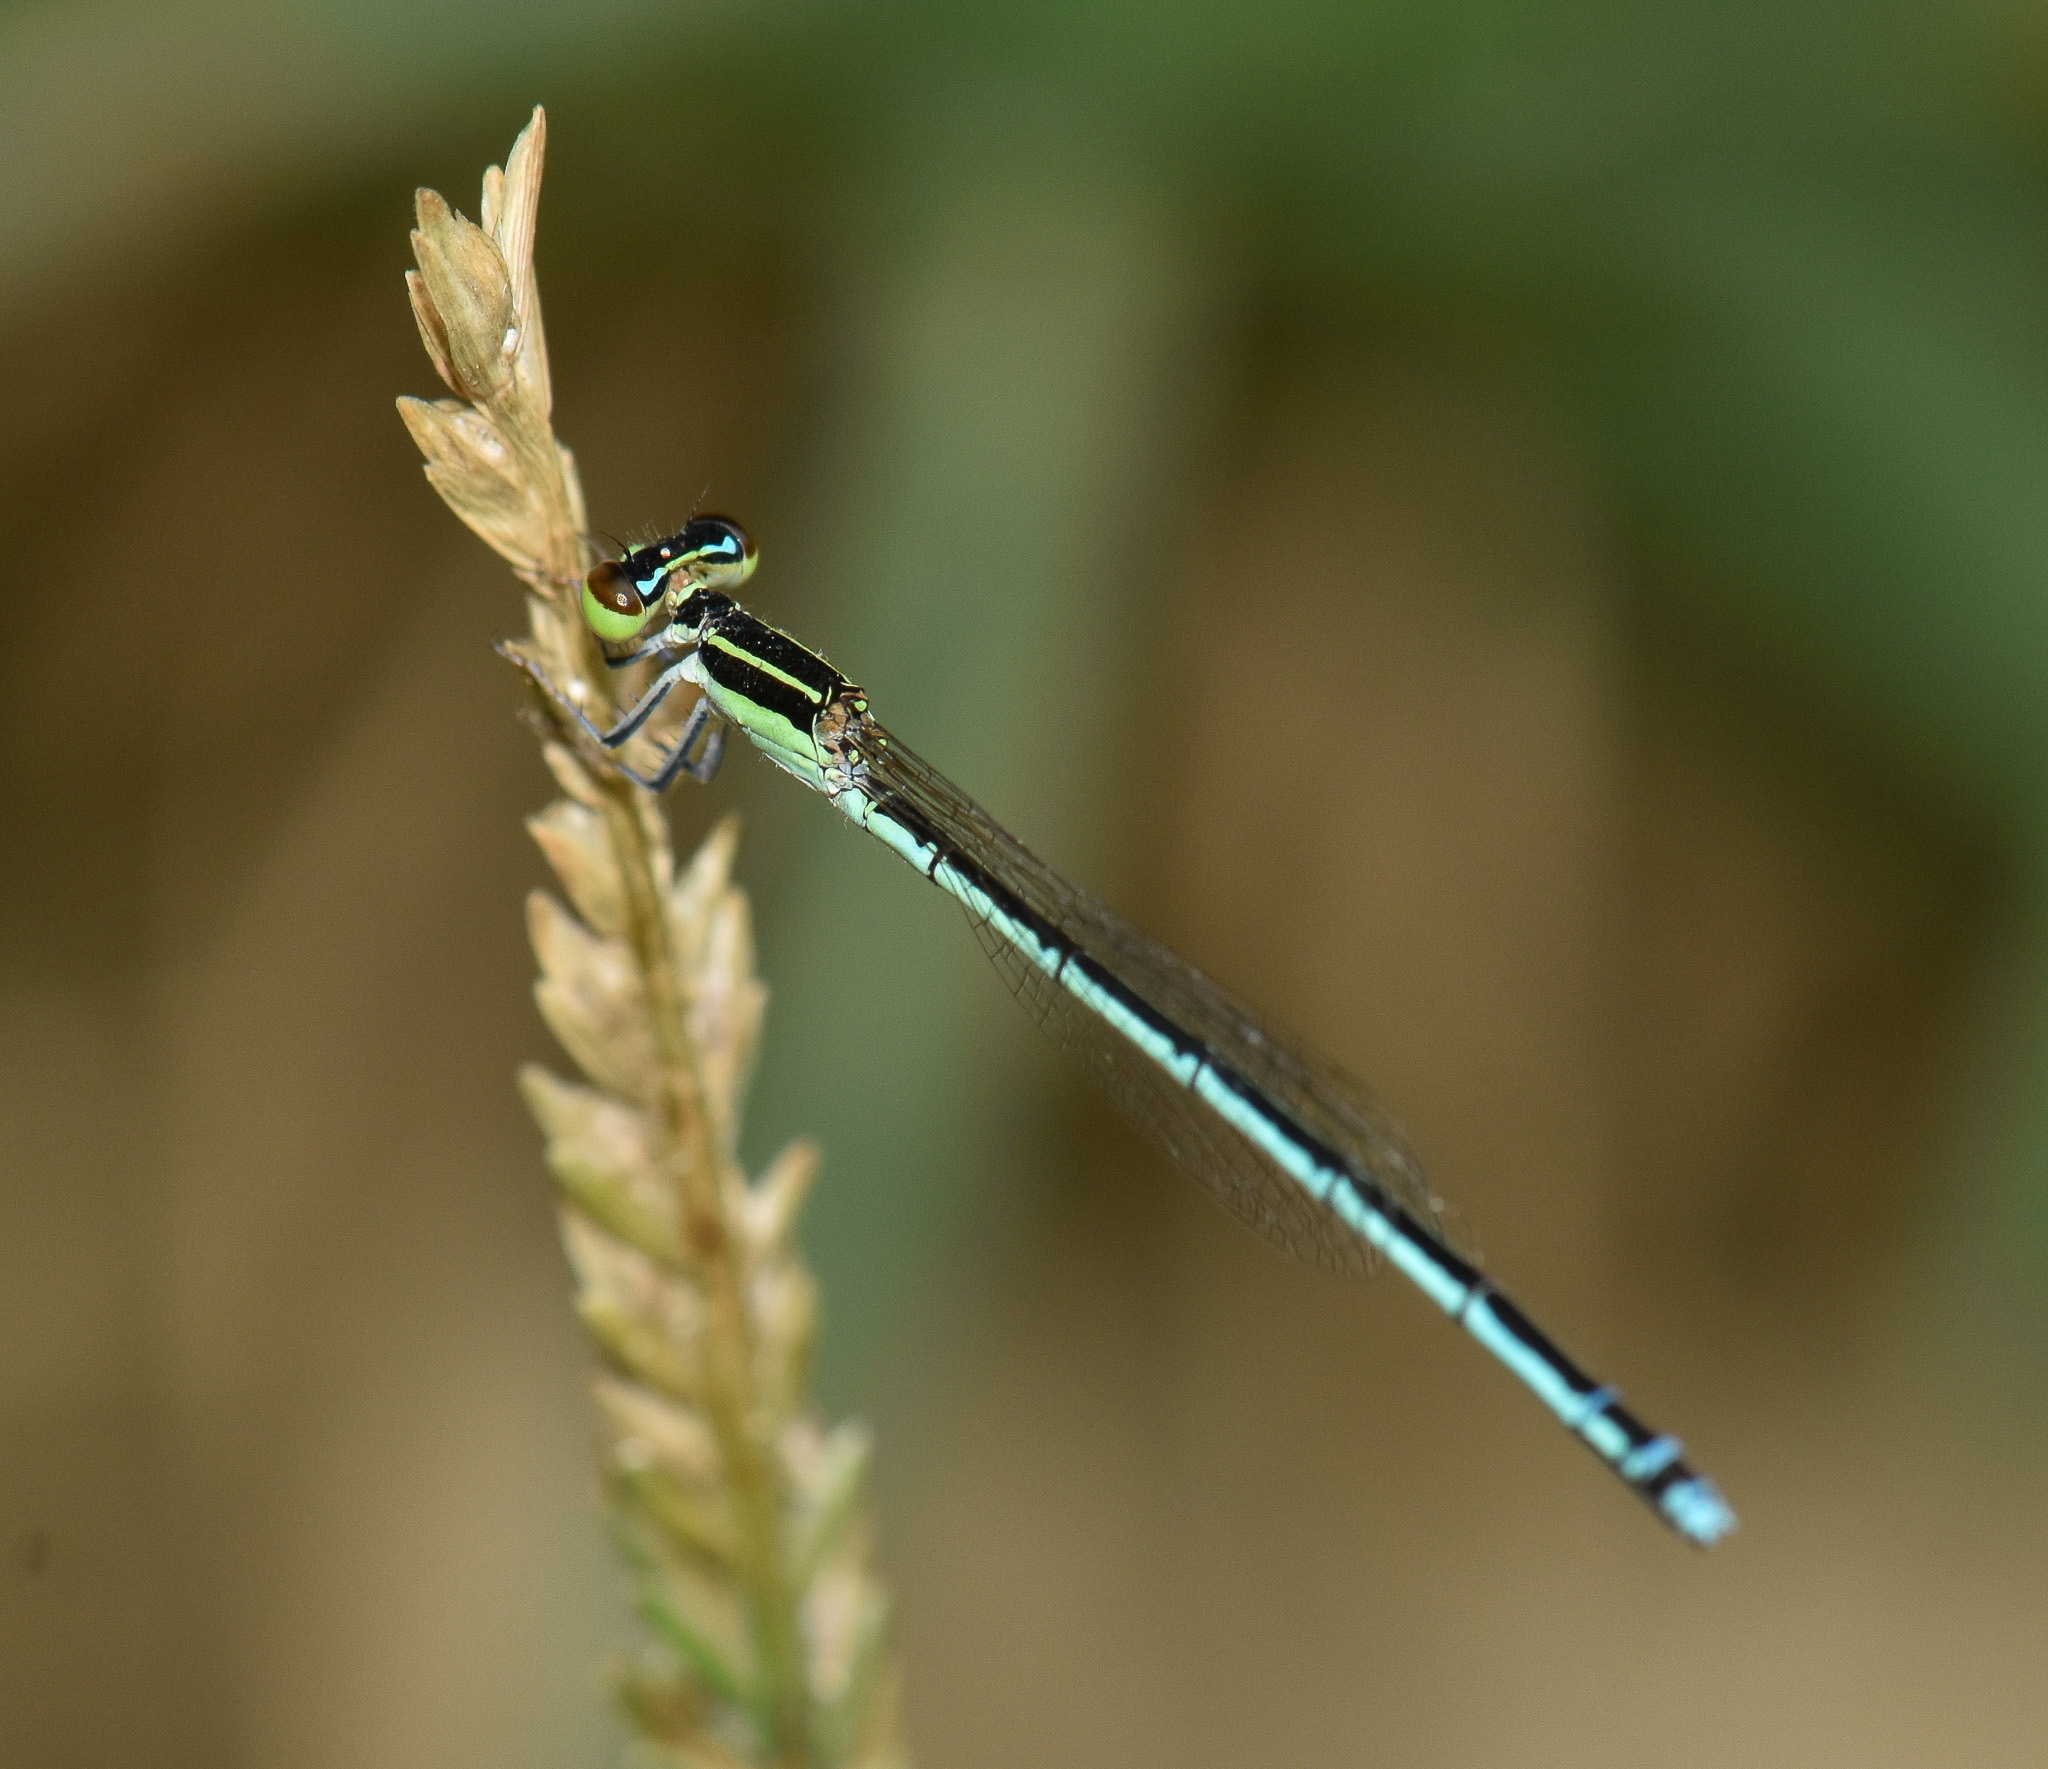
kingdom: Animalia
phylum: Arthropoda
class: Insecta
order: Odonata
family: Coenagrionidae
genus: Agriocnemis
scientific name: Agriocnemis lacteola
